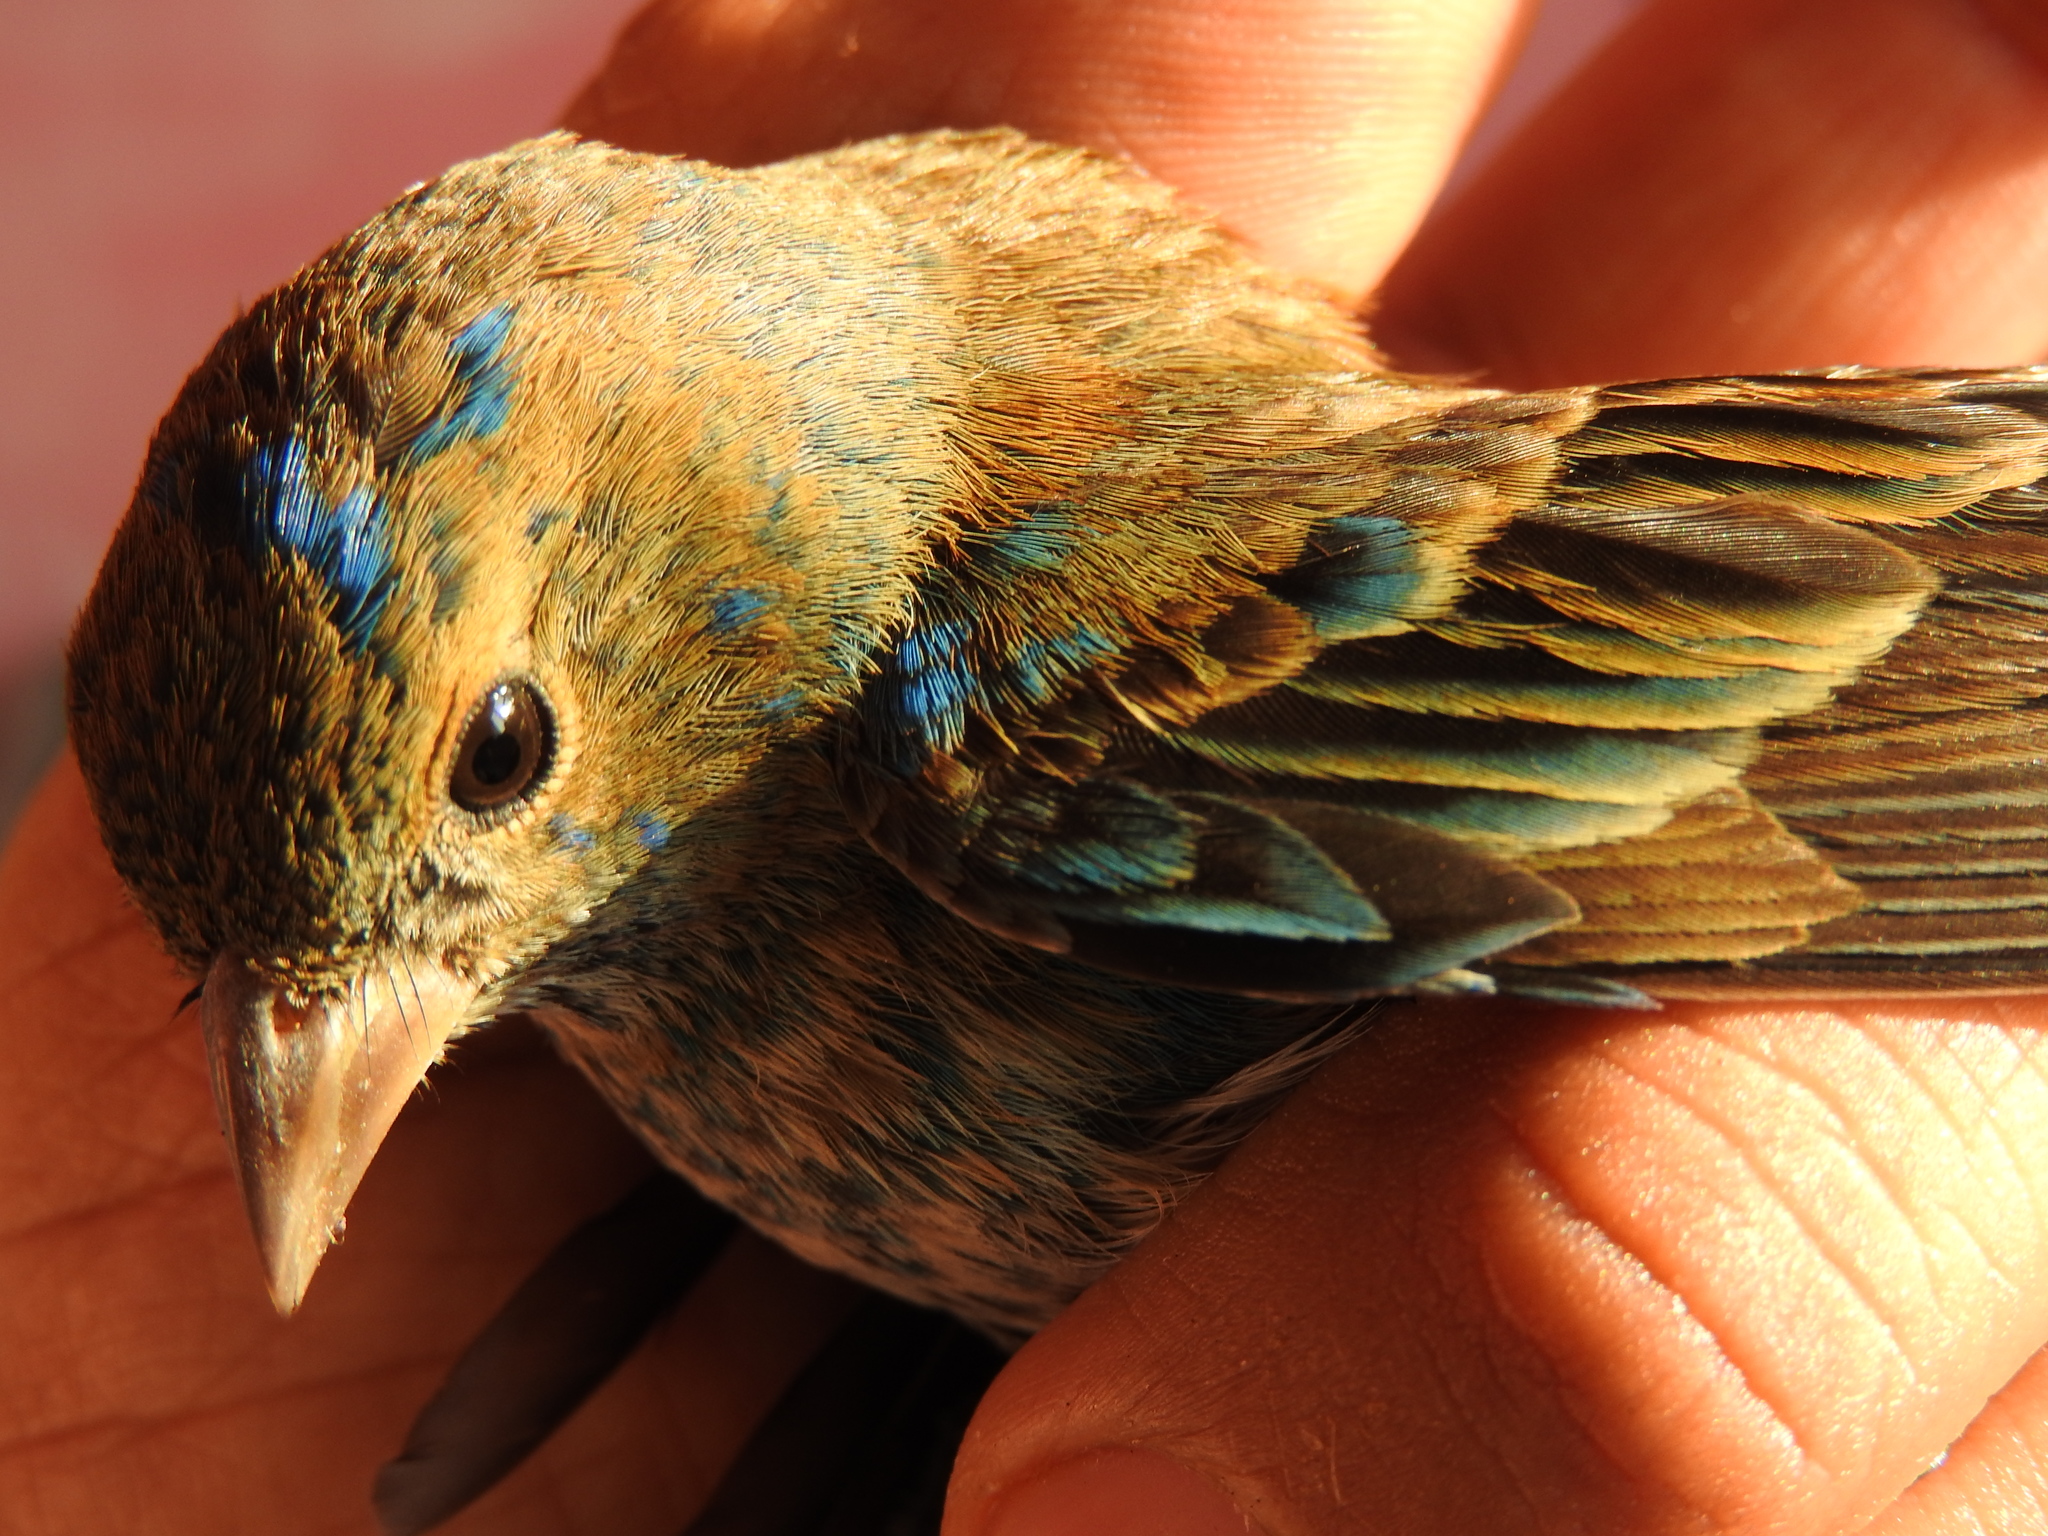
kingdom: Animalia
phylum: Chordata
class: Aves
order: Passeriformes
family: Cardinalidae
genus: Passerina
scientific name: Passerina cyanea
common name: Indigo bunting
